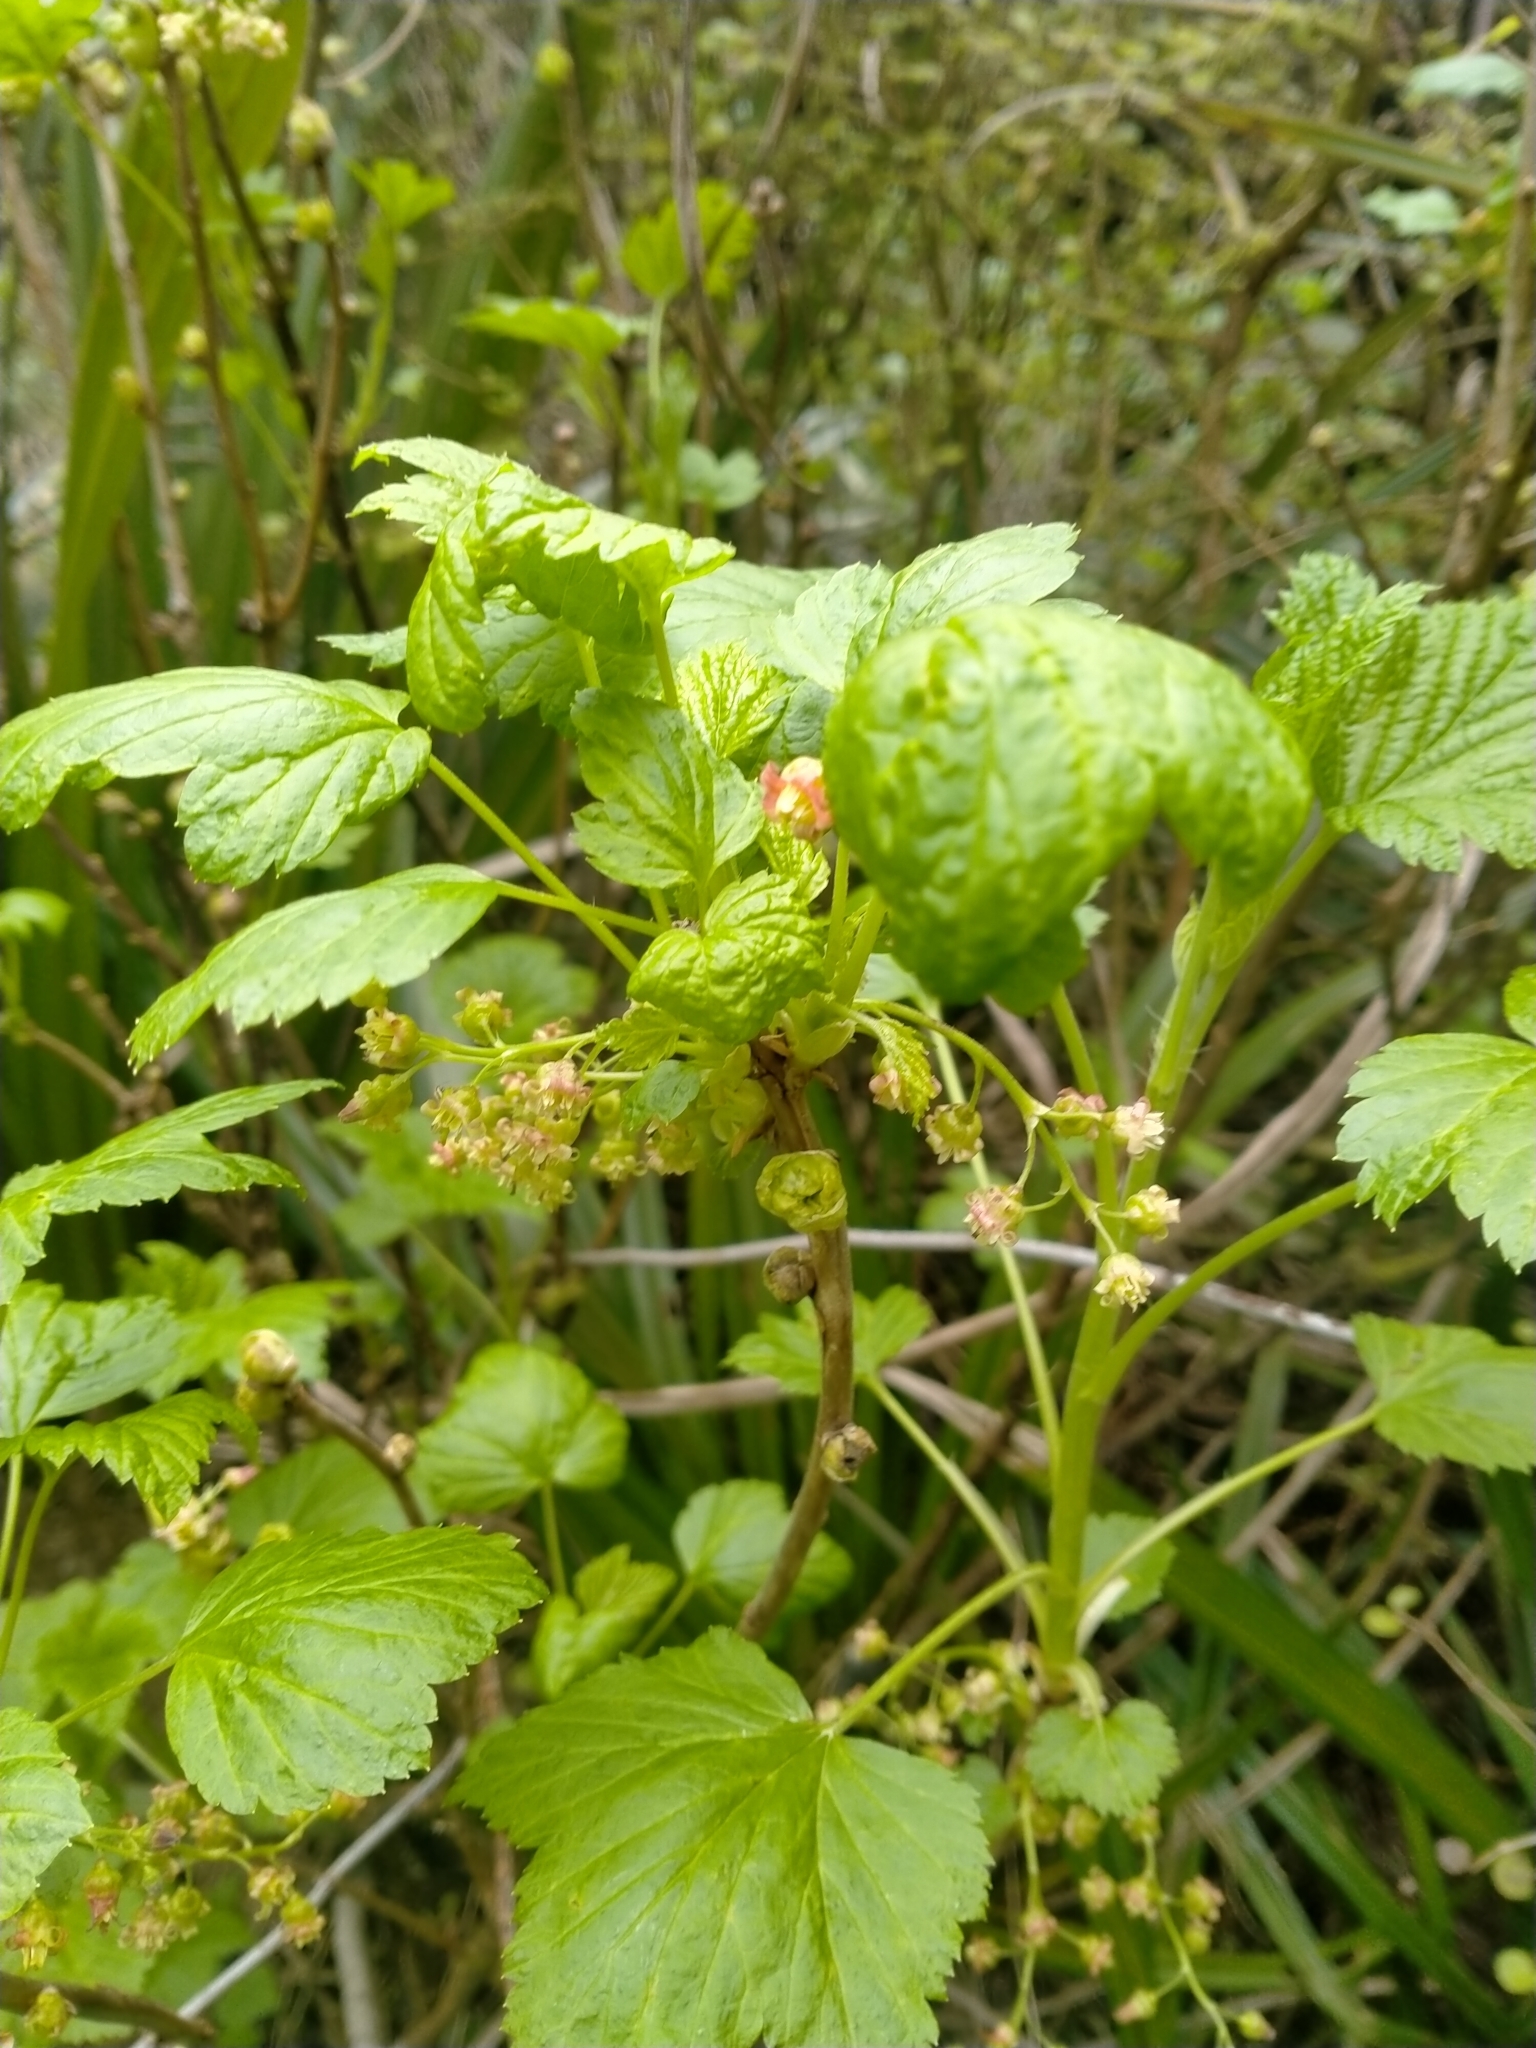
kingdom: Plantae
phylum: Tracheophyta
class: Magnoliopsida
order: Saxifragales
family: Grossulariaceae
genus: Ribes
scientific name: Ribes nigrum
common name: Black currant
